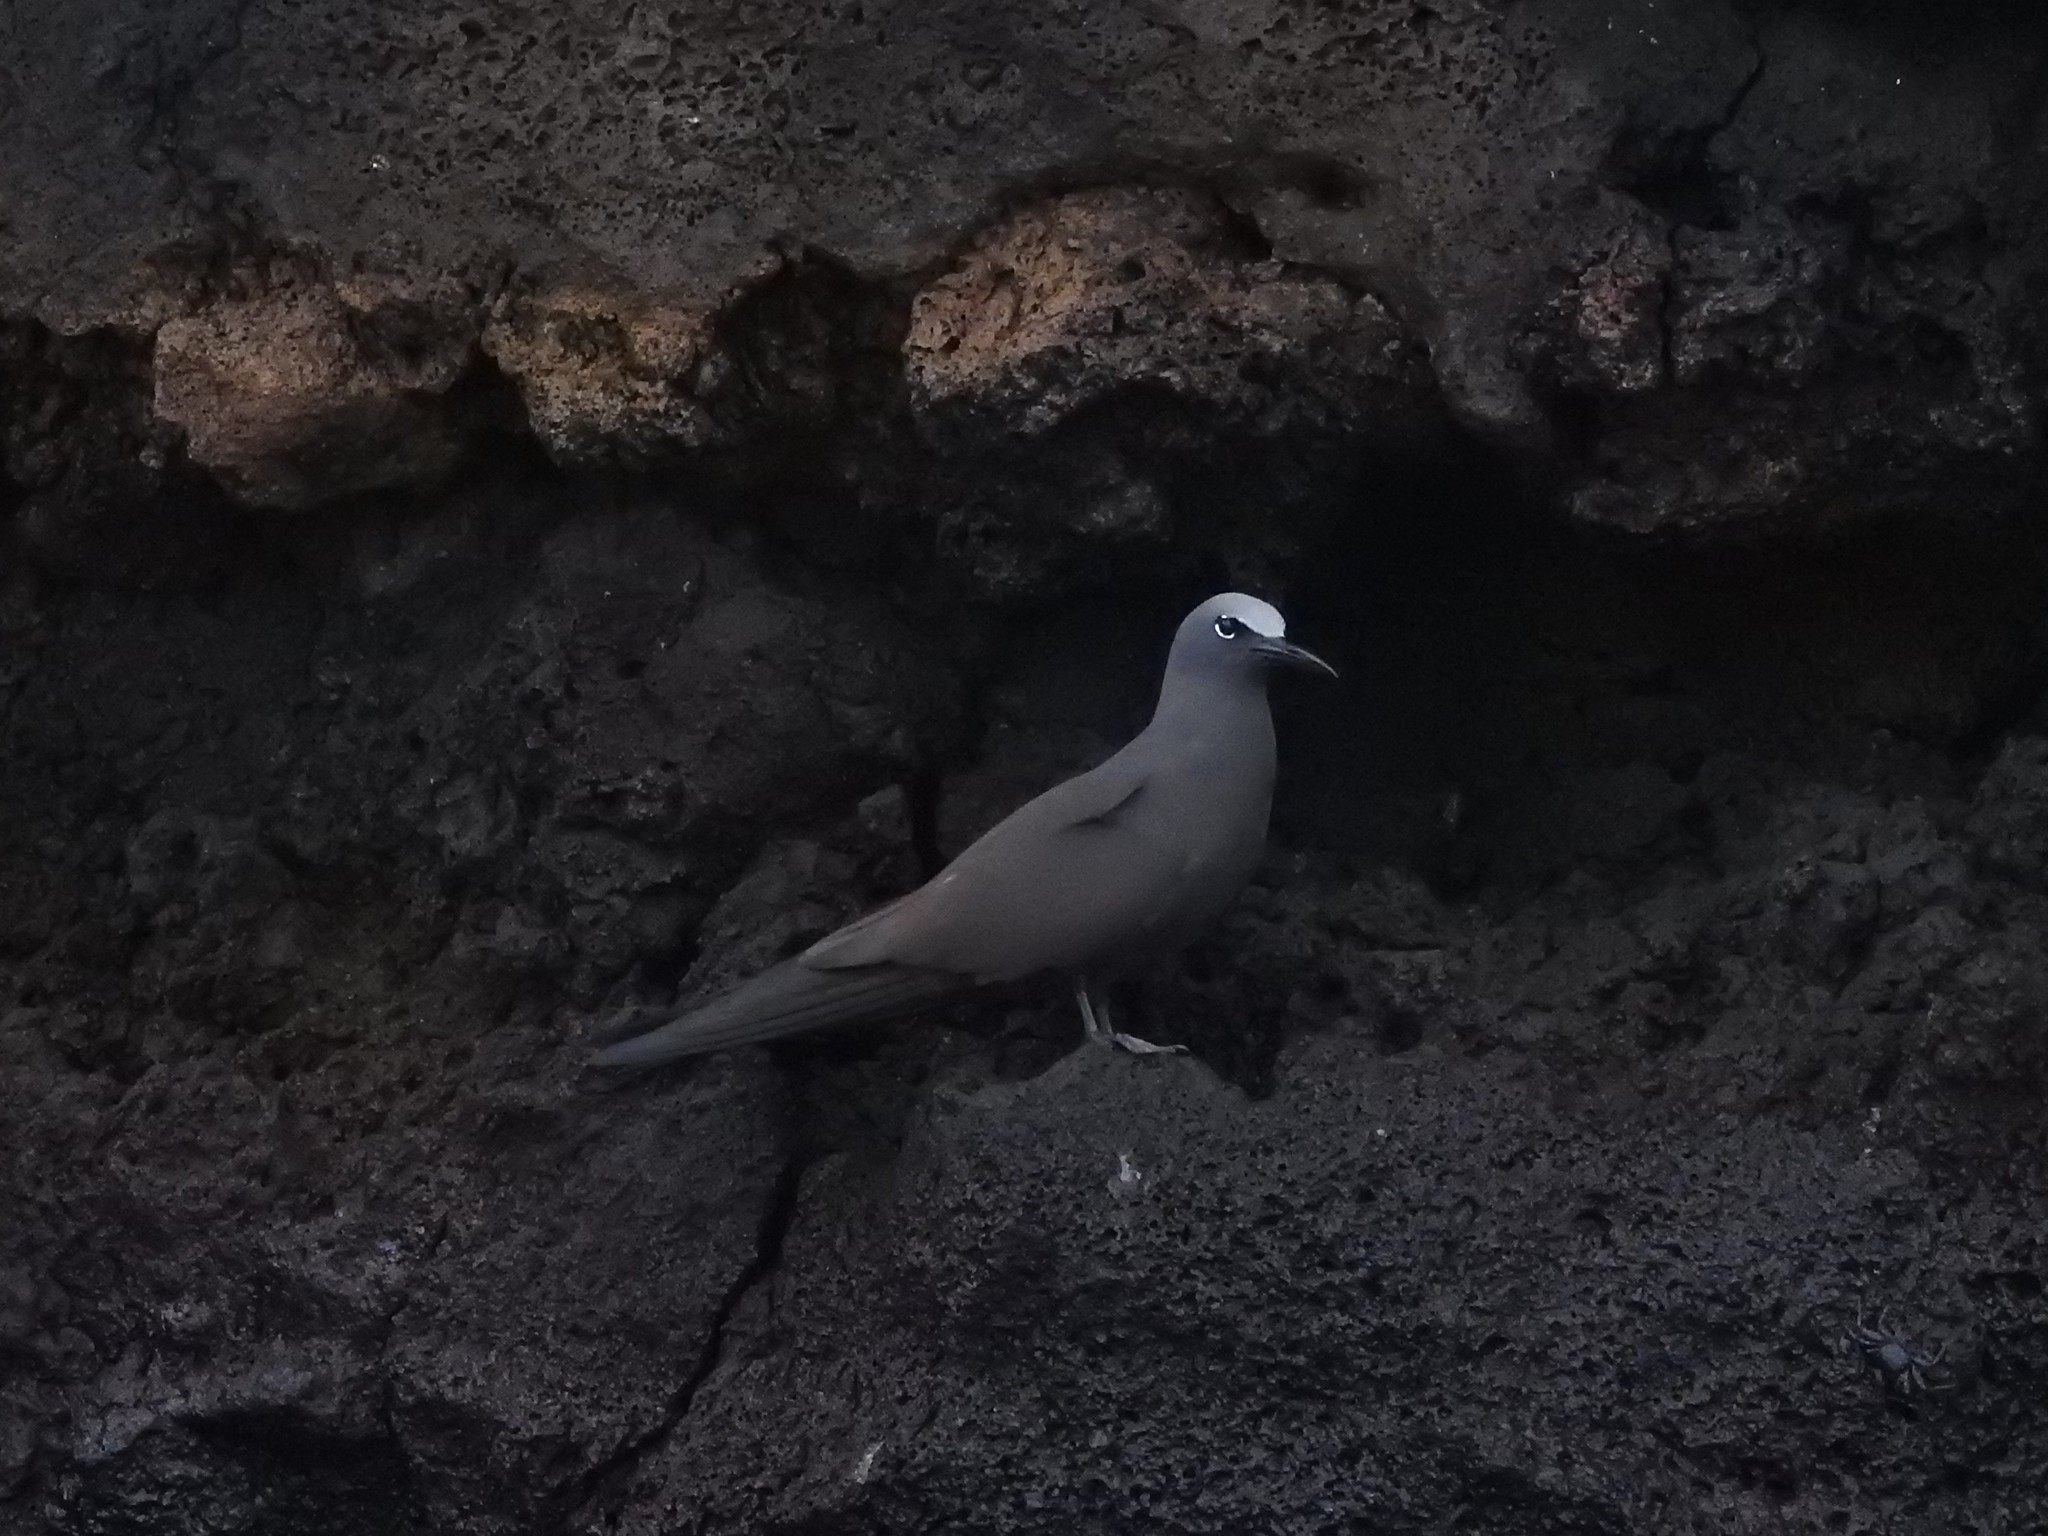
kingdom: Animalia
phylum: Chordata
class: Aves
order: Charadriiformes
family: Laridae
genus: Anous
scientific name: Anous stolidus
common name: Brown noddy
